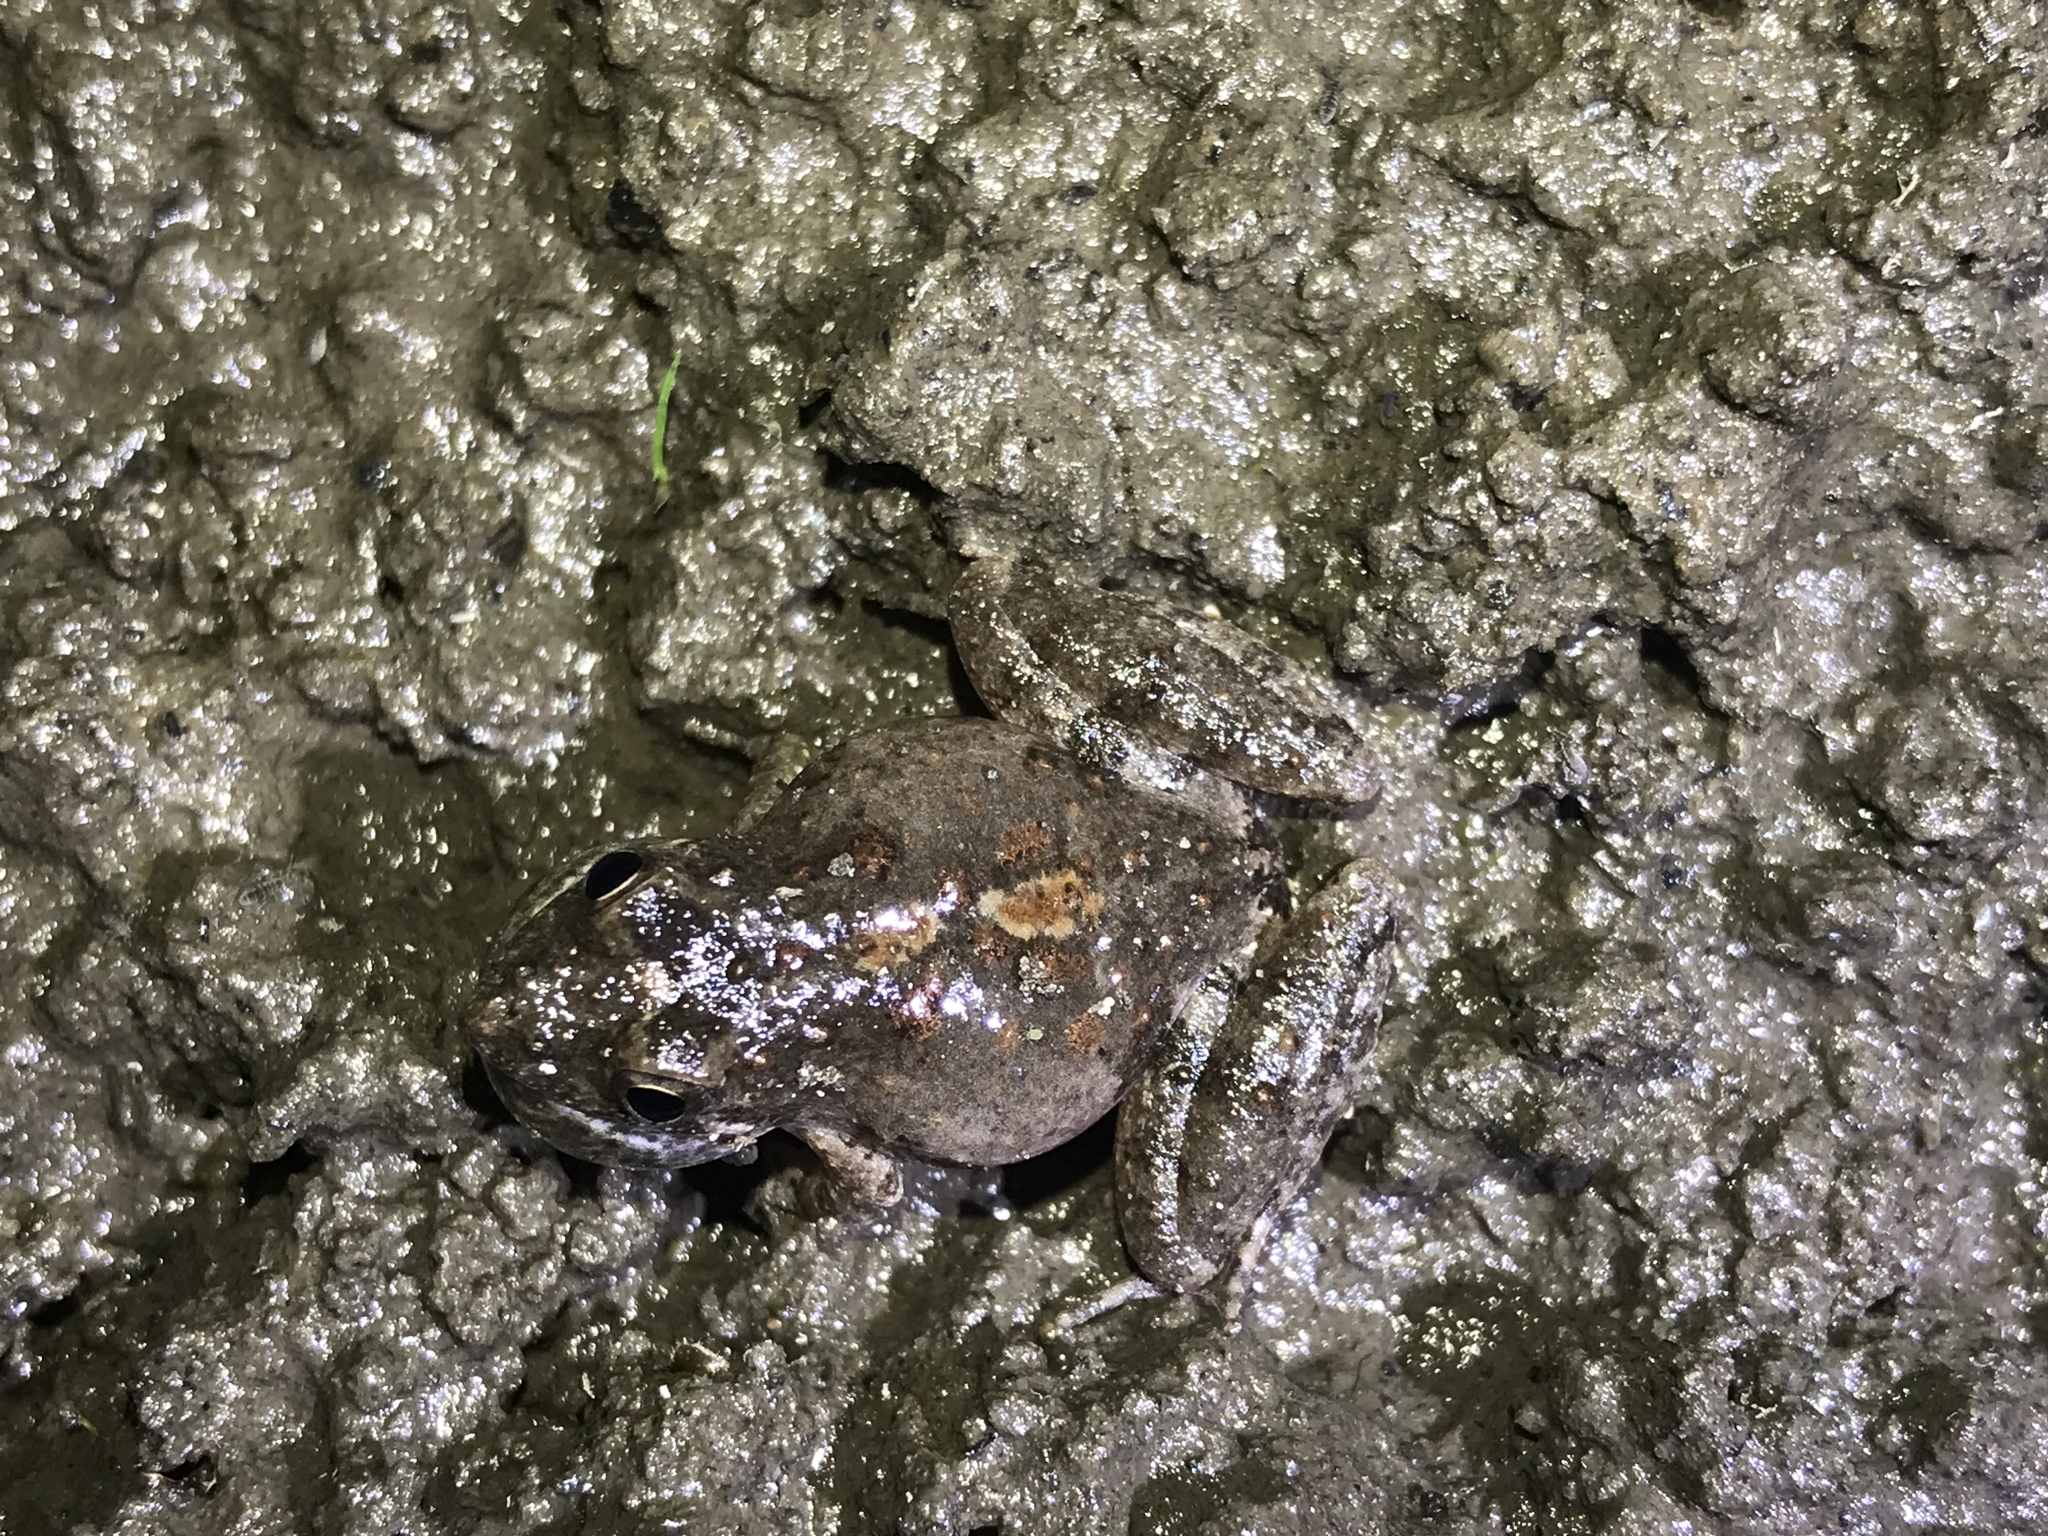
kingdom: Animalia
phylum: Chordata
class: Amphibia
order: Anura
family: Hylidae
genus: Acris
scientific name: Acris blanchardi
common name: Blanchard's cricket frog
